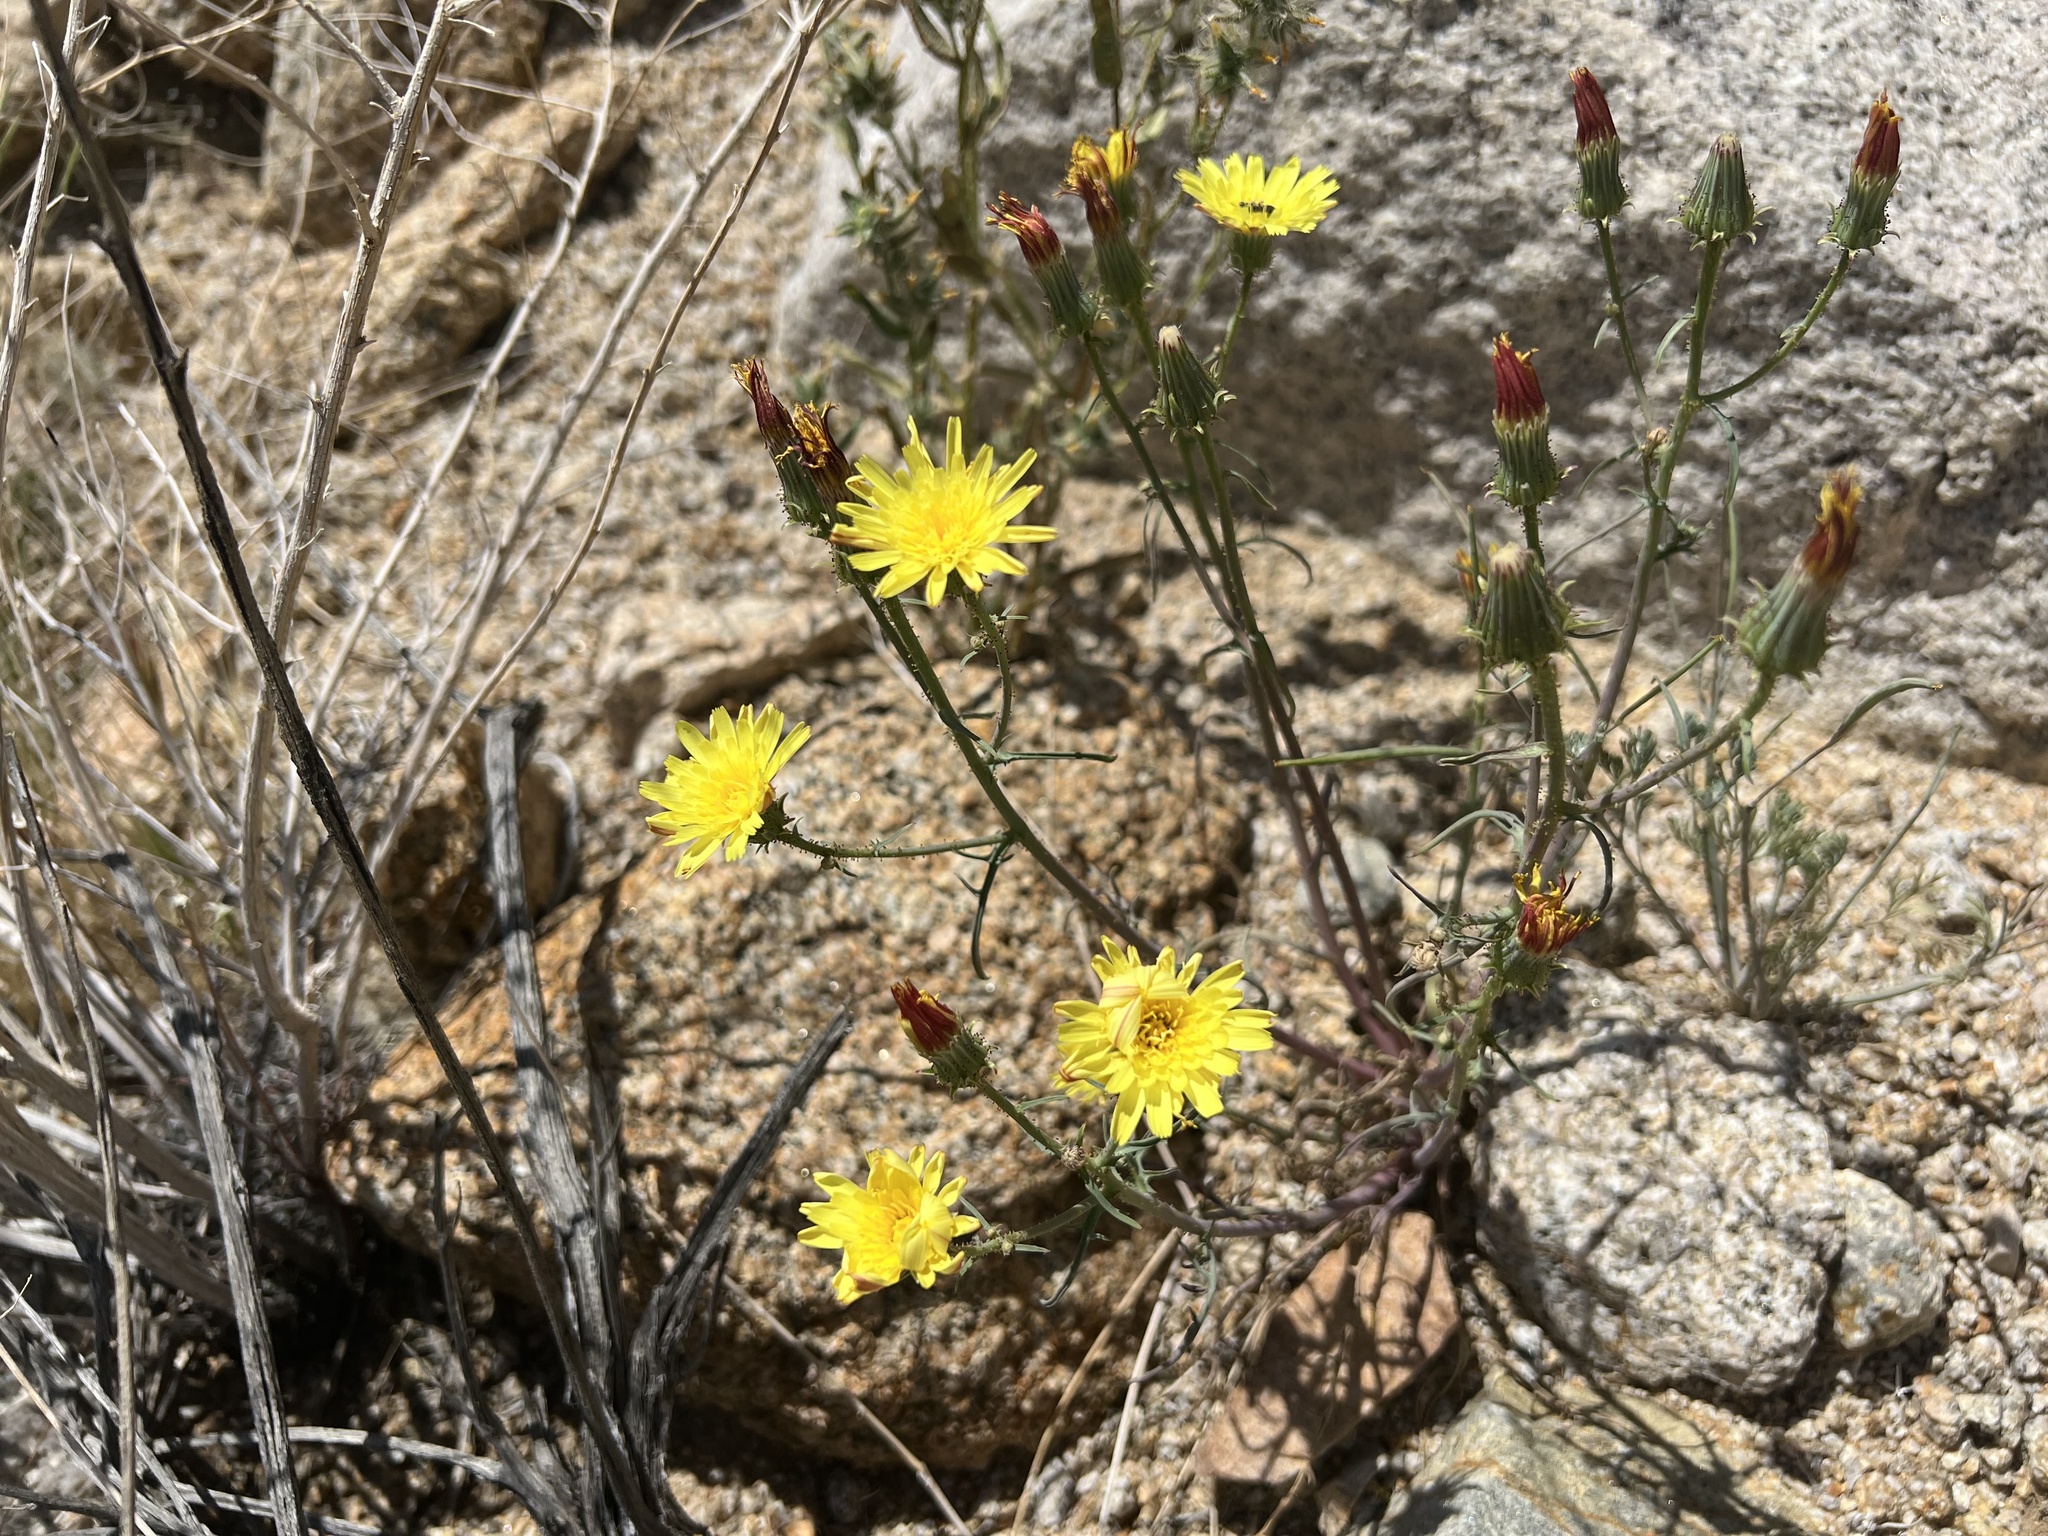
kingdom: Plantae
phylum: Tracheophyta
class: Magnoliopsida
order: Asterales
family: Asteraceae
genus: Calycoseris
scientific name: Calycoseris parryi
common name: Yellow tackstem
